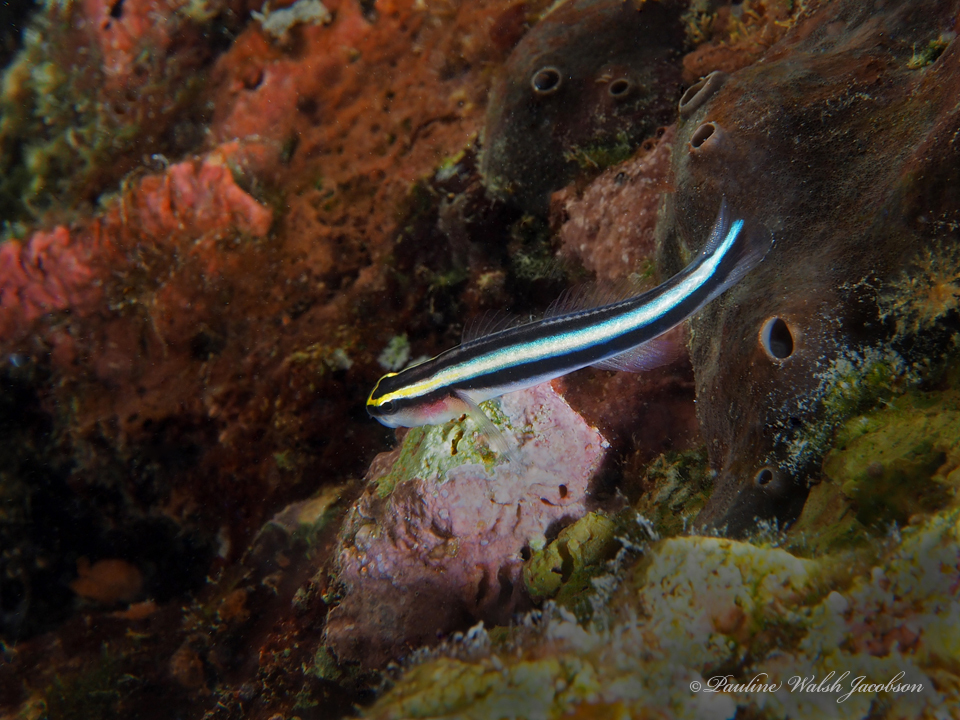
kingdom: Animalia
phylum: Chordata
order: Perciformes
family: Gobiidae
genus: Elacatinus
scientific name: Elacatinus evelynae
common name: Sharknose goby
